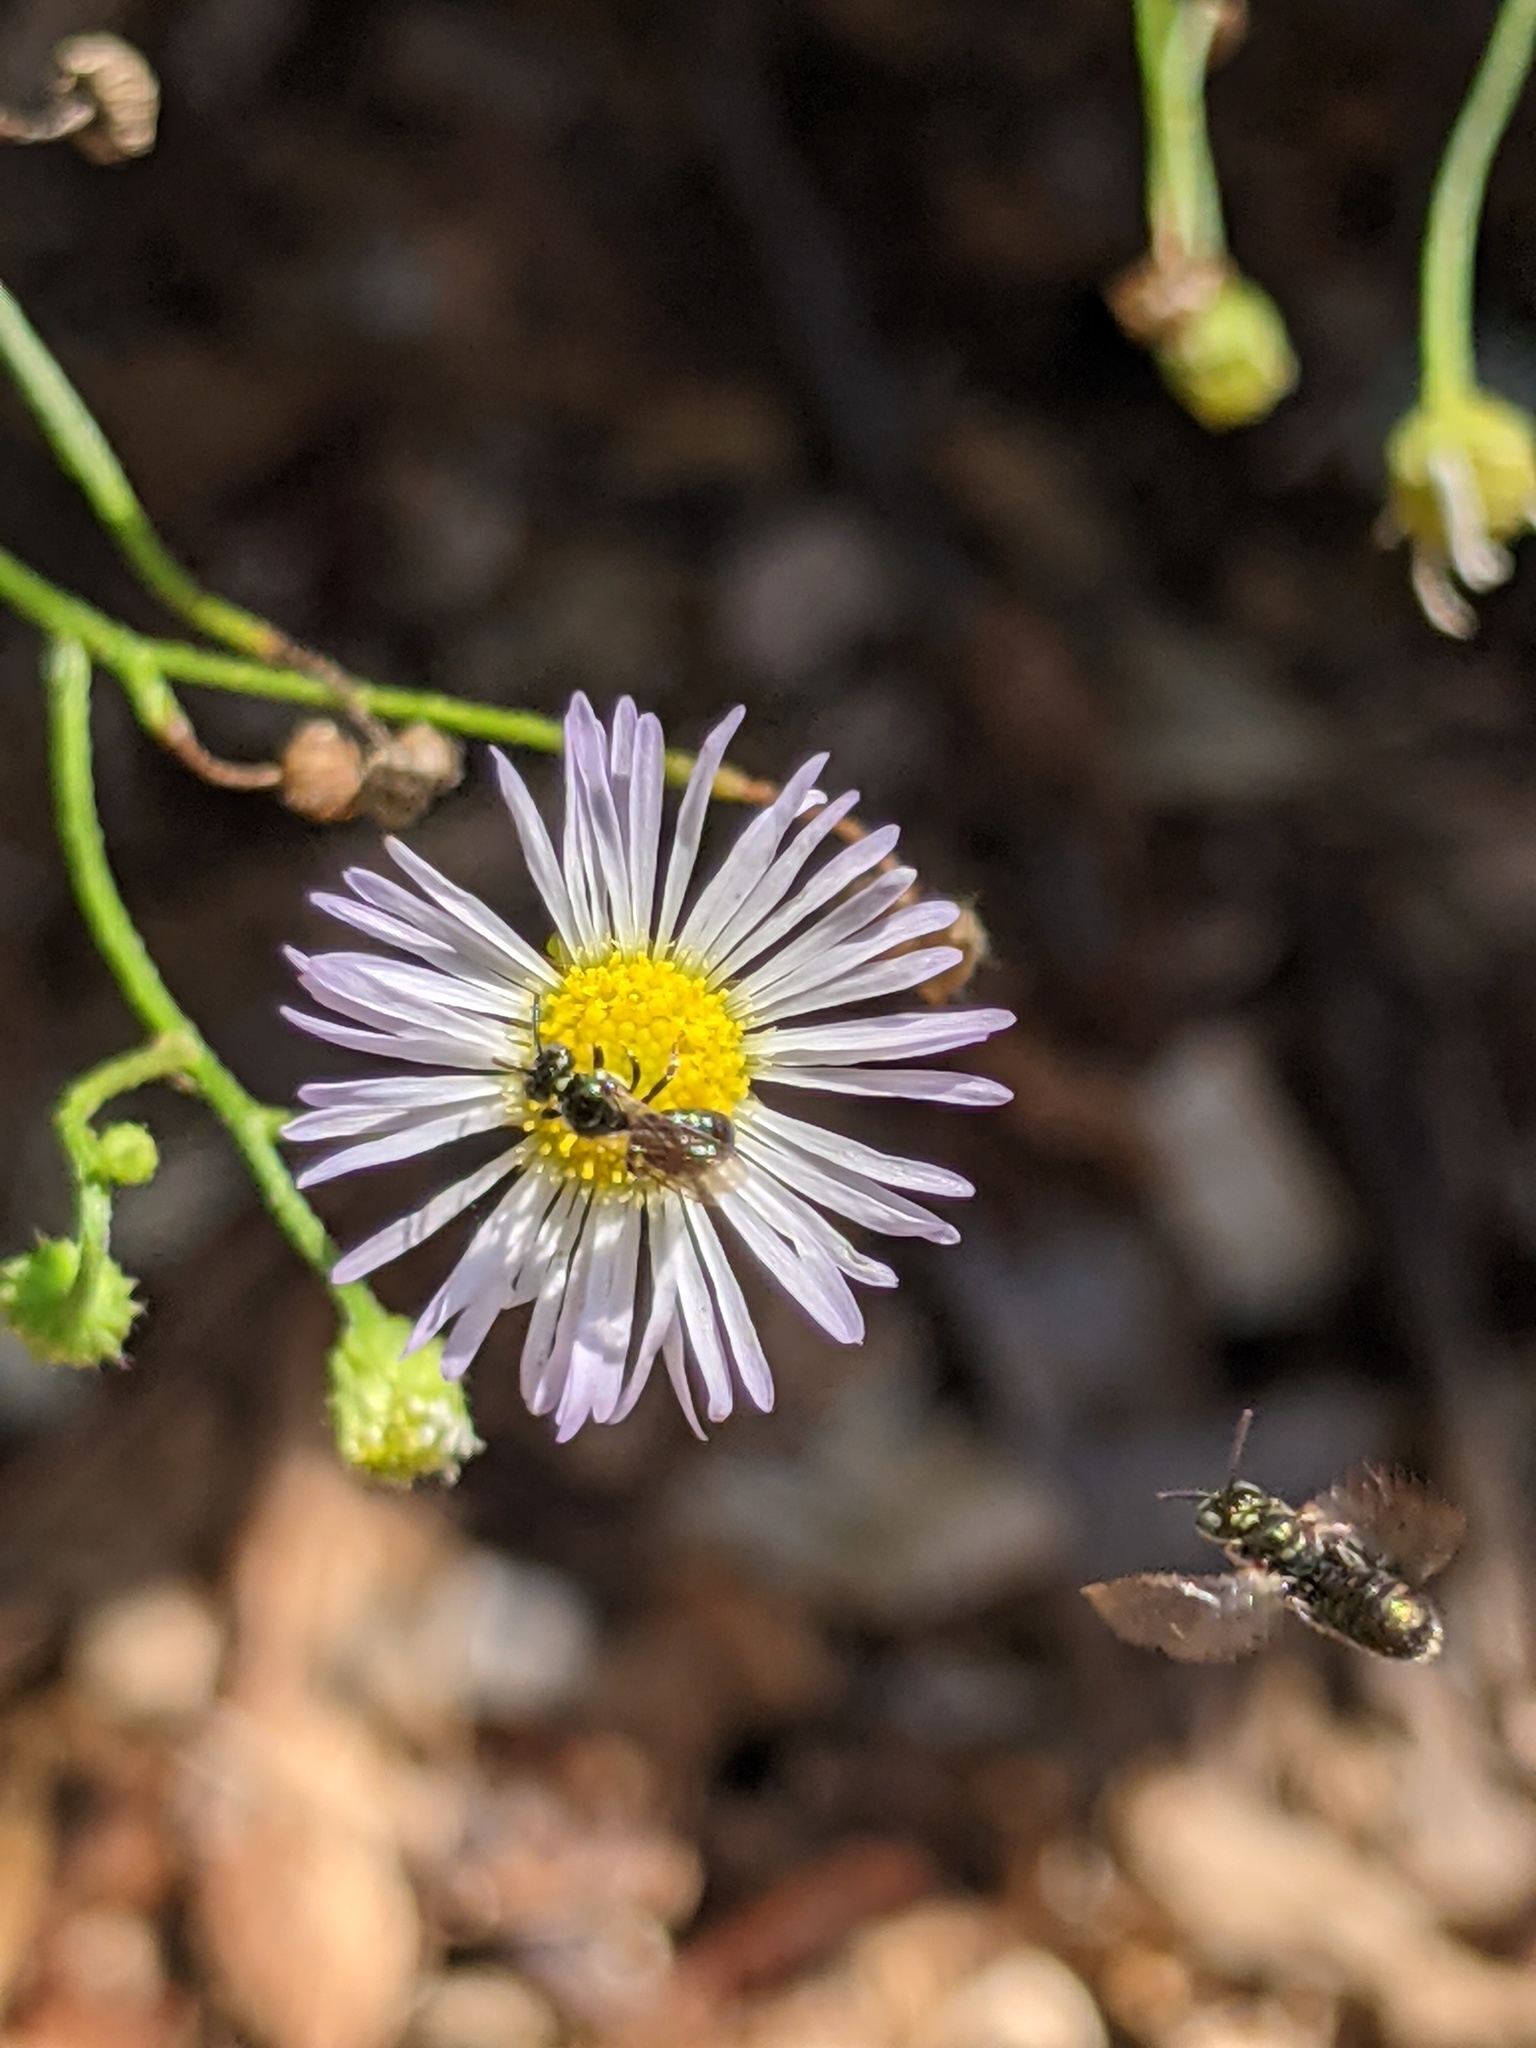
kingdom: Animalia
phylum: Arthropoda
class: Insecta
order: Hymenoptera
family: Apidae
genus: Zadontomerus
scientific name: Zadontomerus
